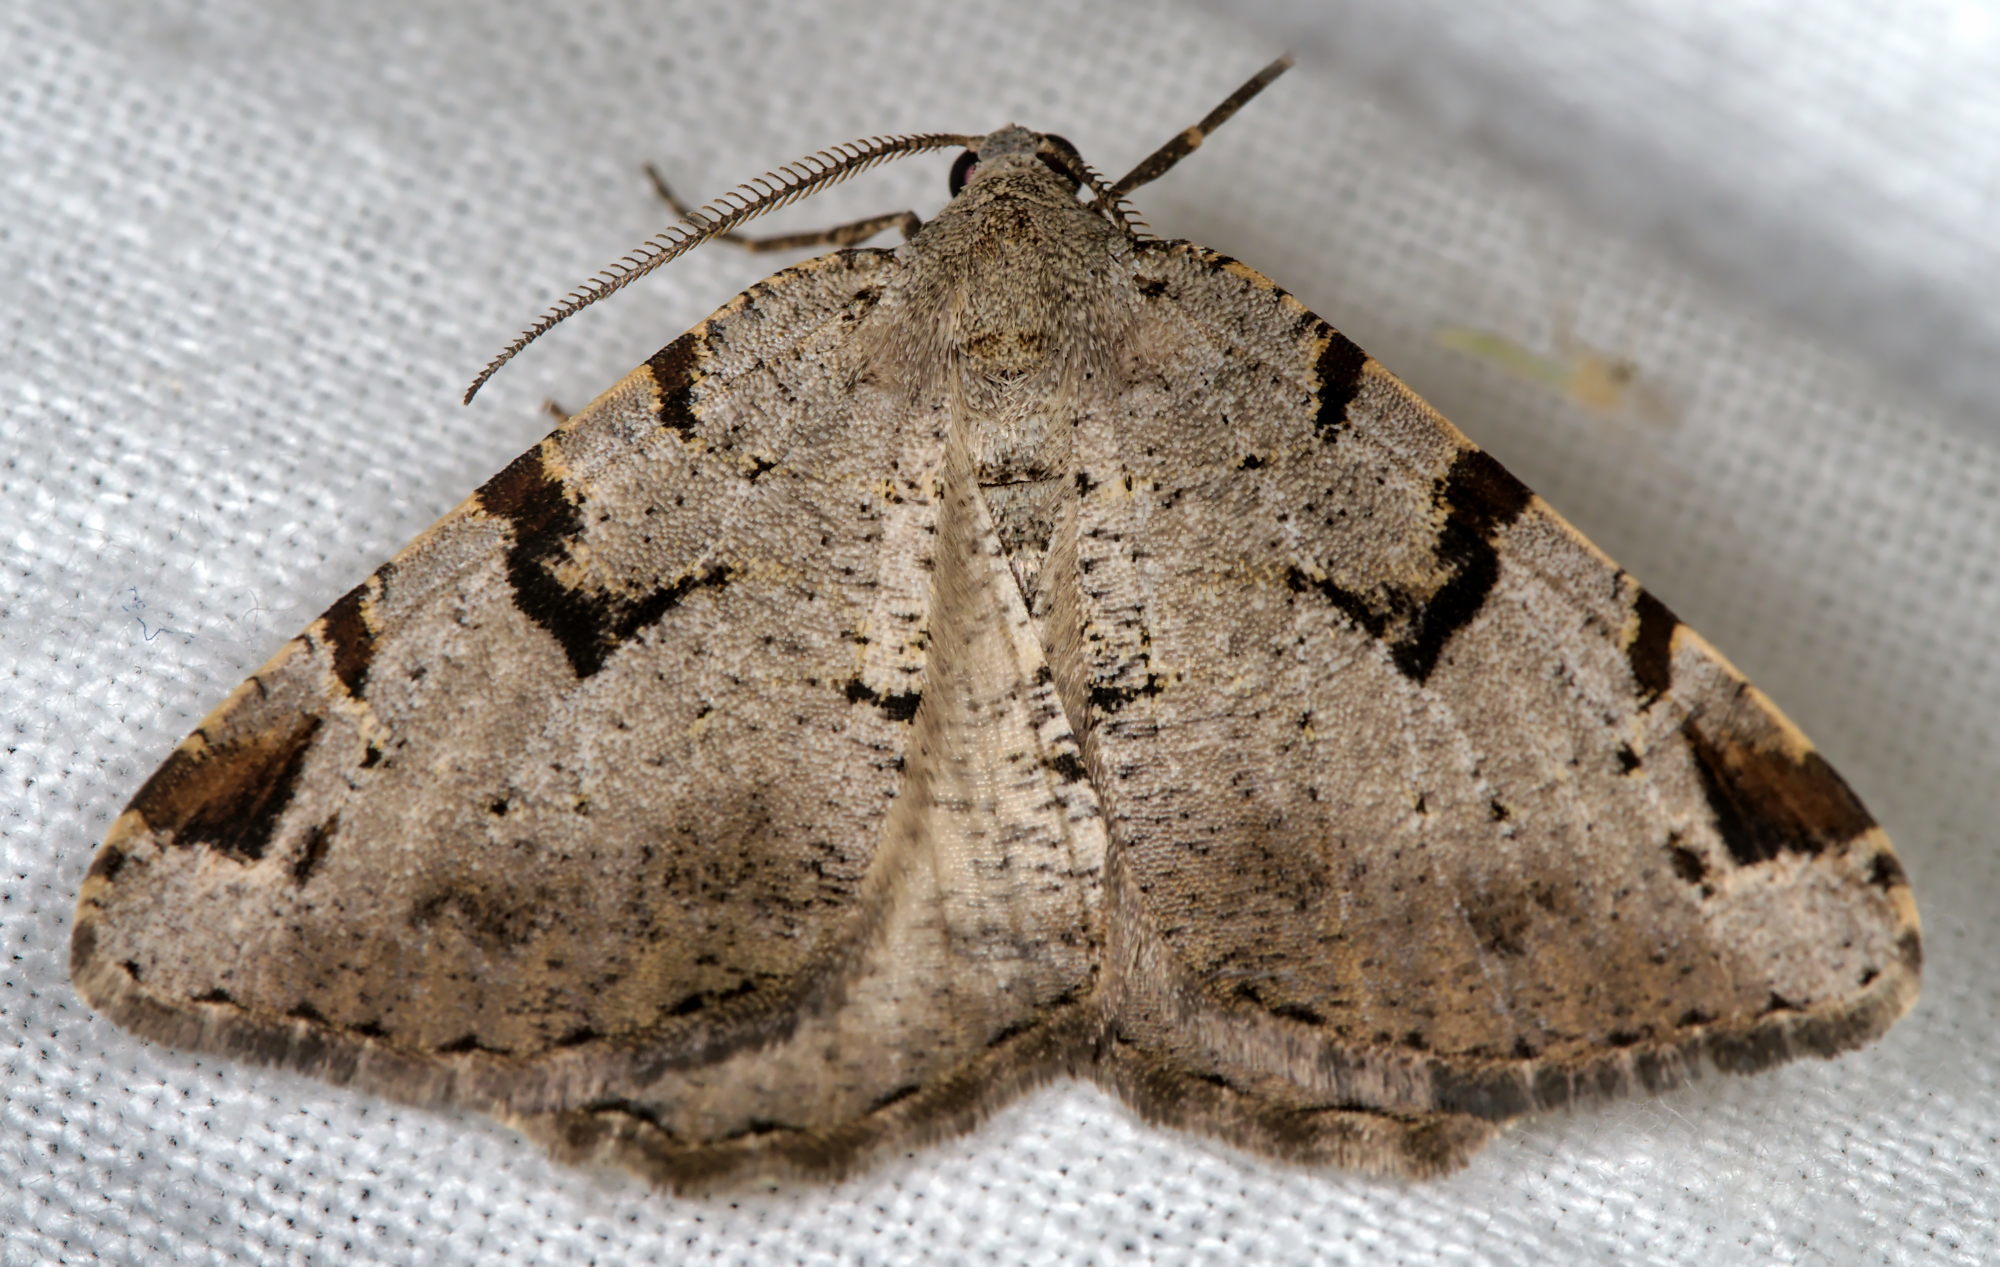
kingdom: Animalia
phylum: Arthropoda
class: Insecta
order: Lepidoptera
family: Geometridae
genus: Macaria
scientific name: Macaria wauaria
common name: V-moth
